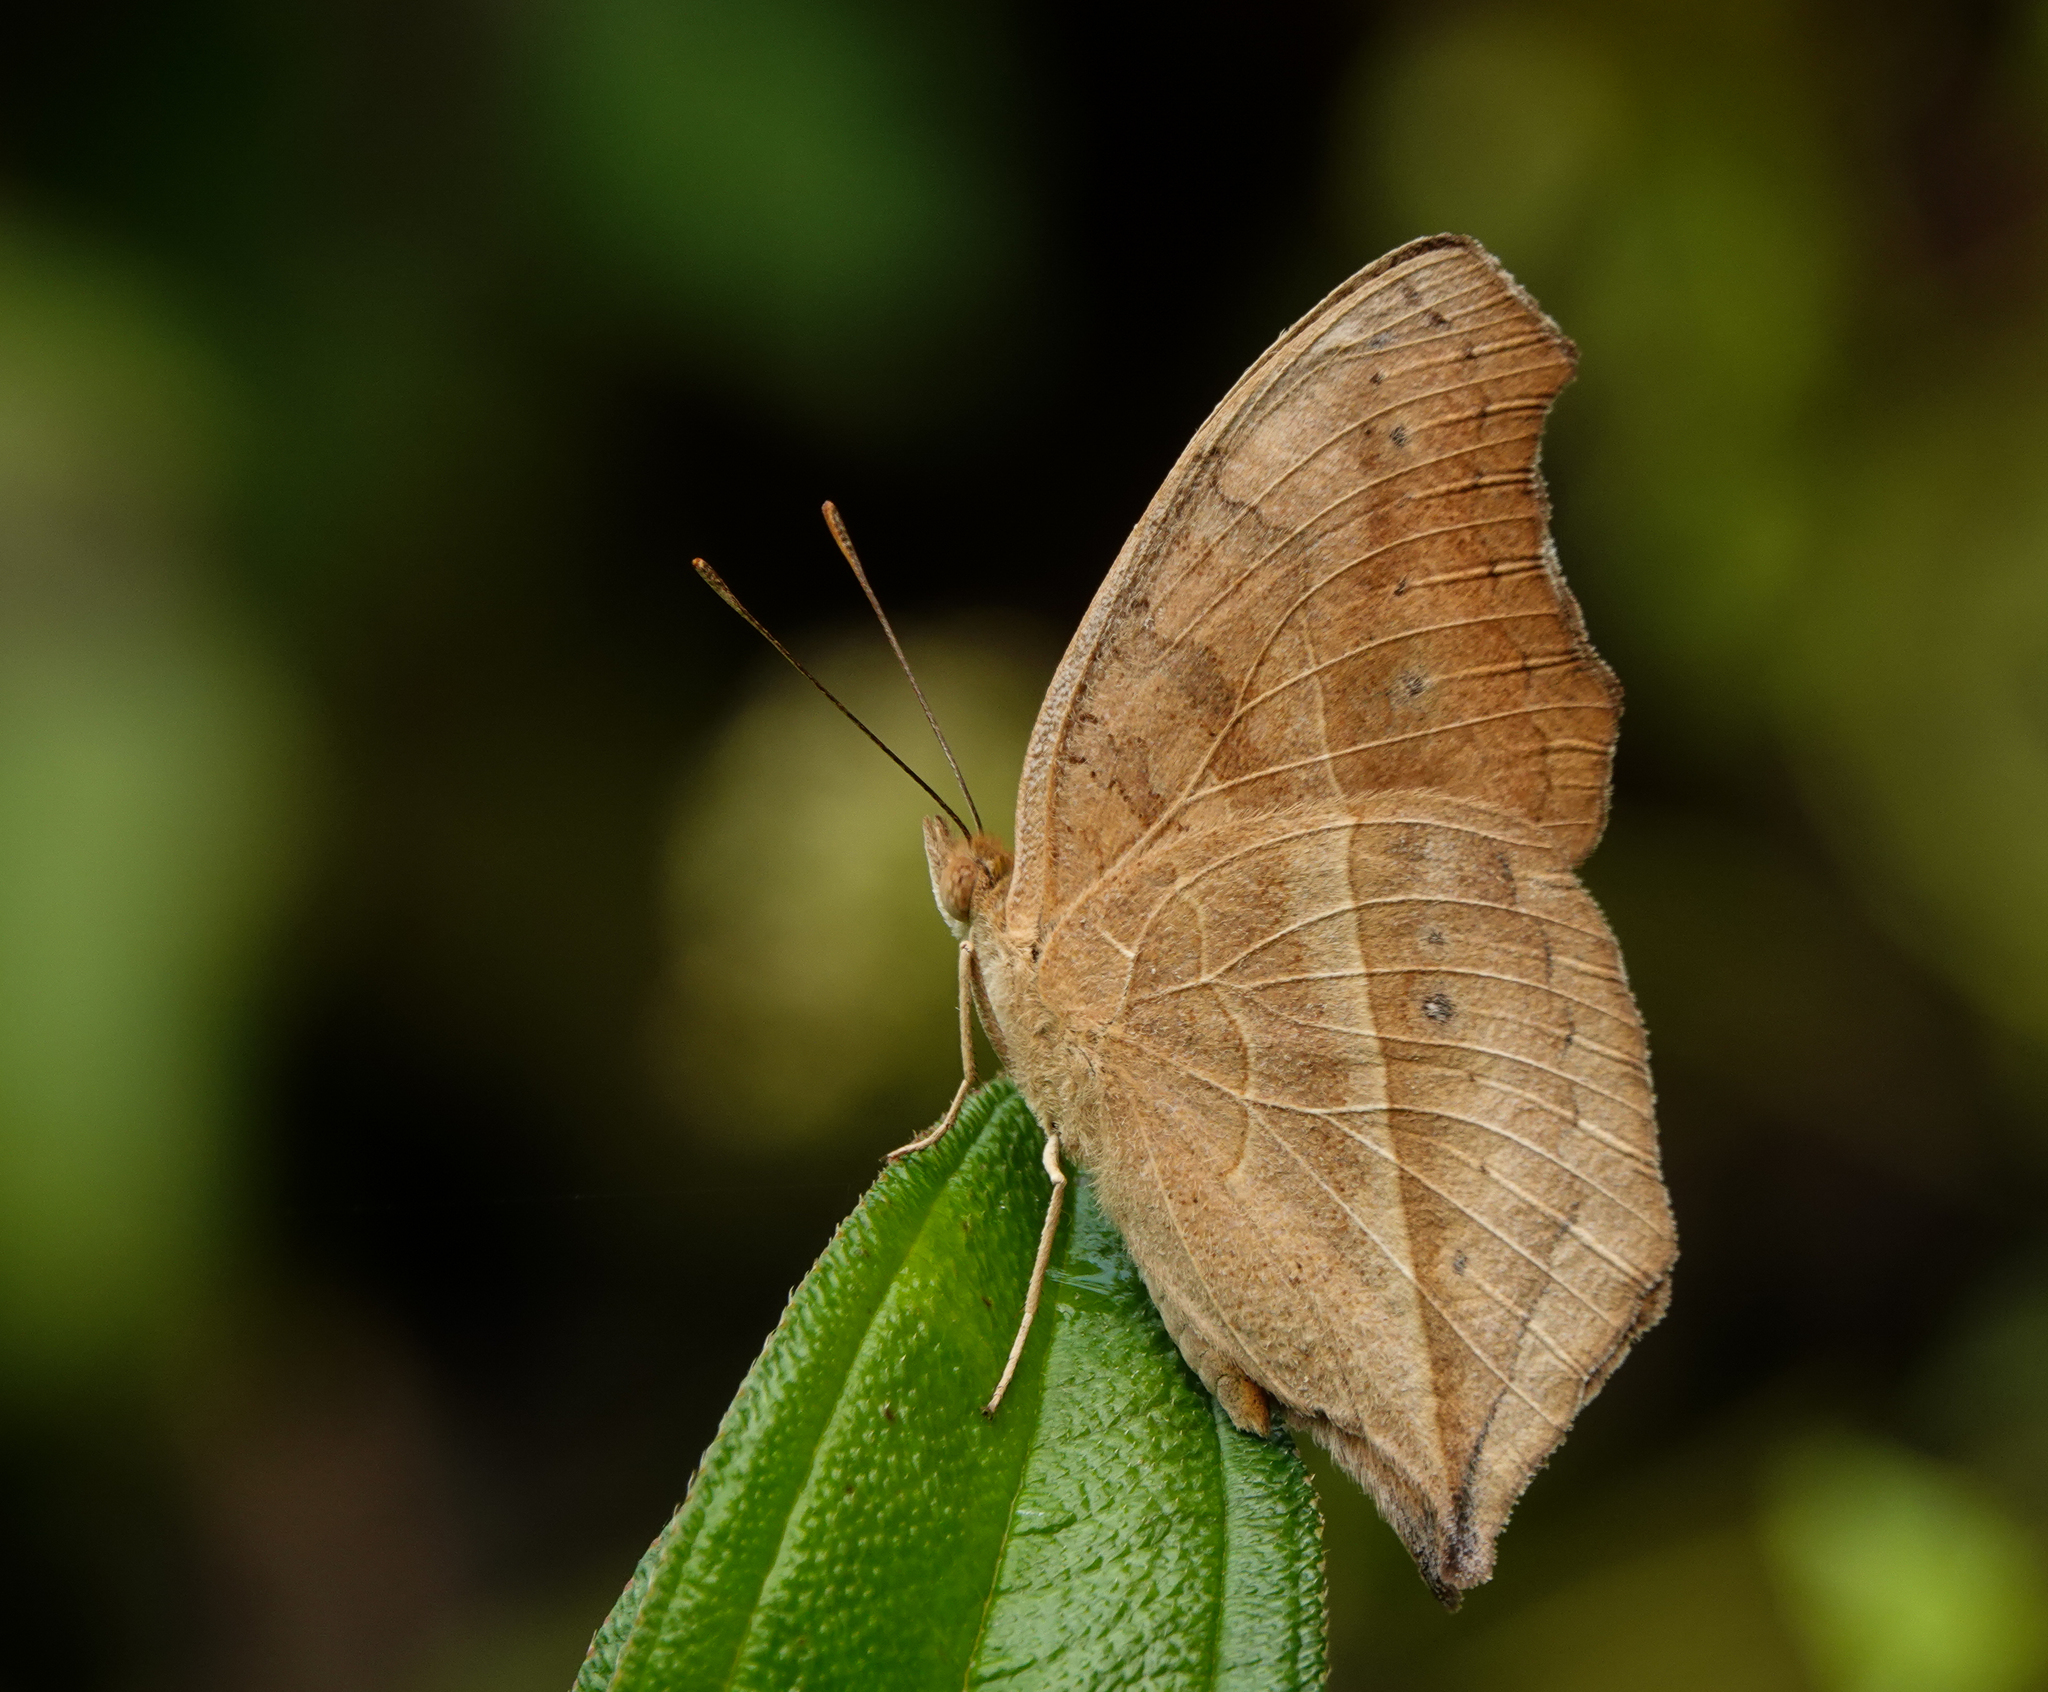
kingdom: Animalia
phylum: Arthropoda
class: Insecta
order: Lepidoptera
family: Nymphalidae
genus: Junonia
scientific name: Junonia almana
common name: Peacock pansy
